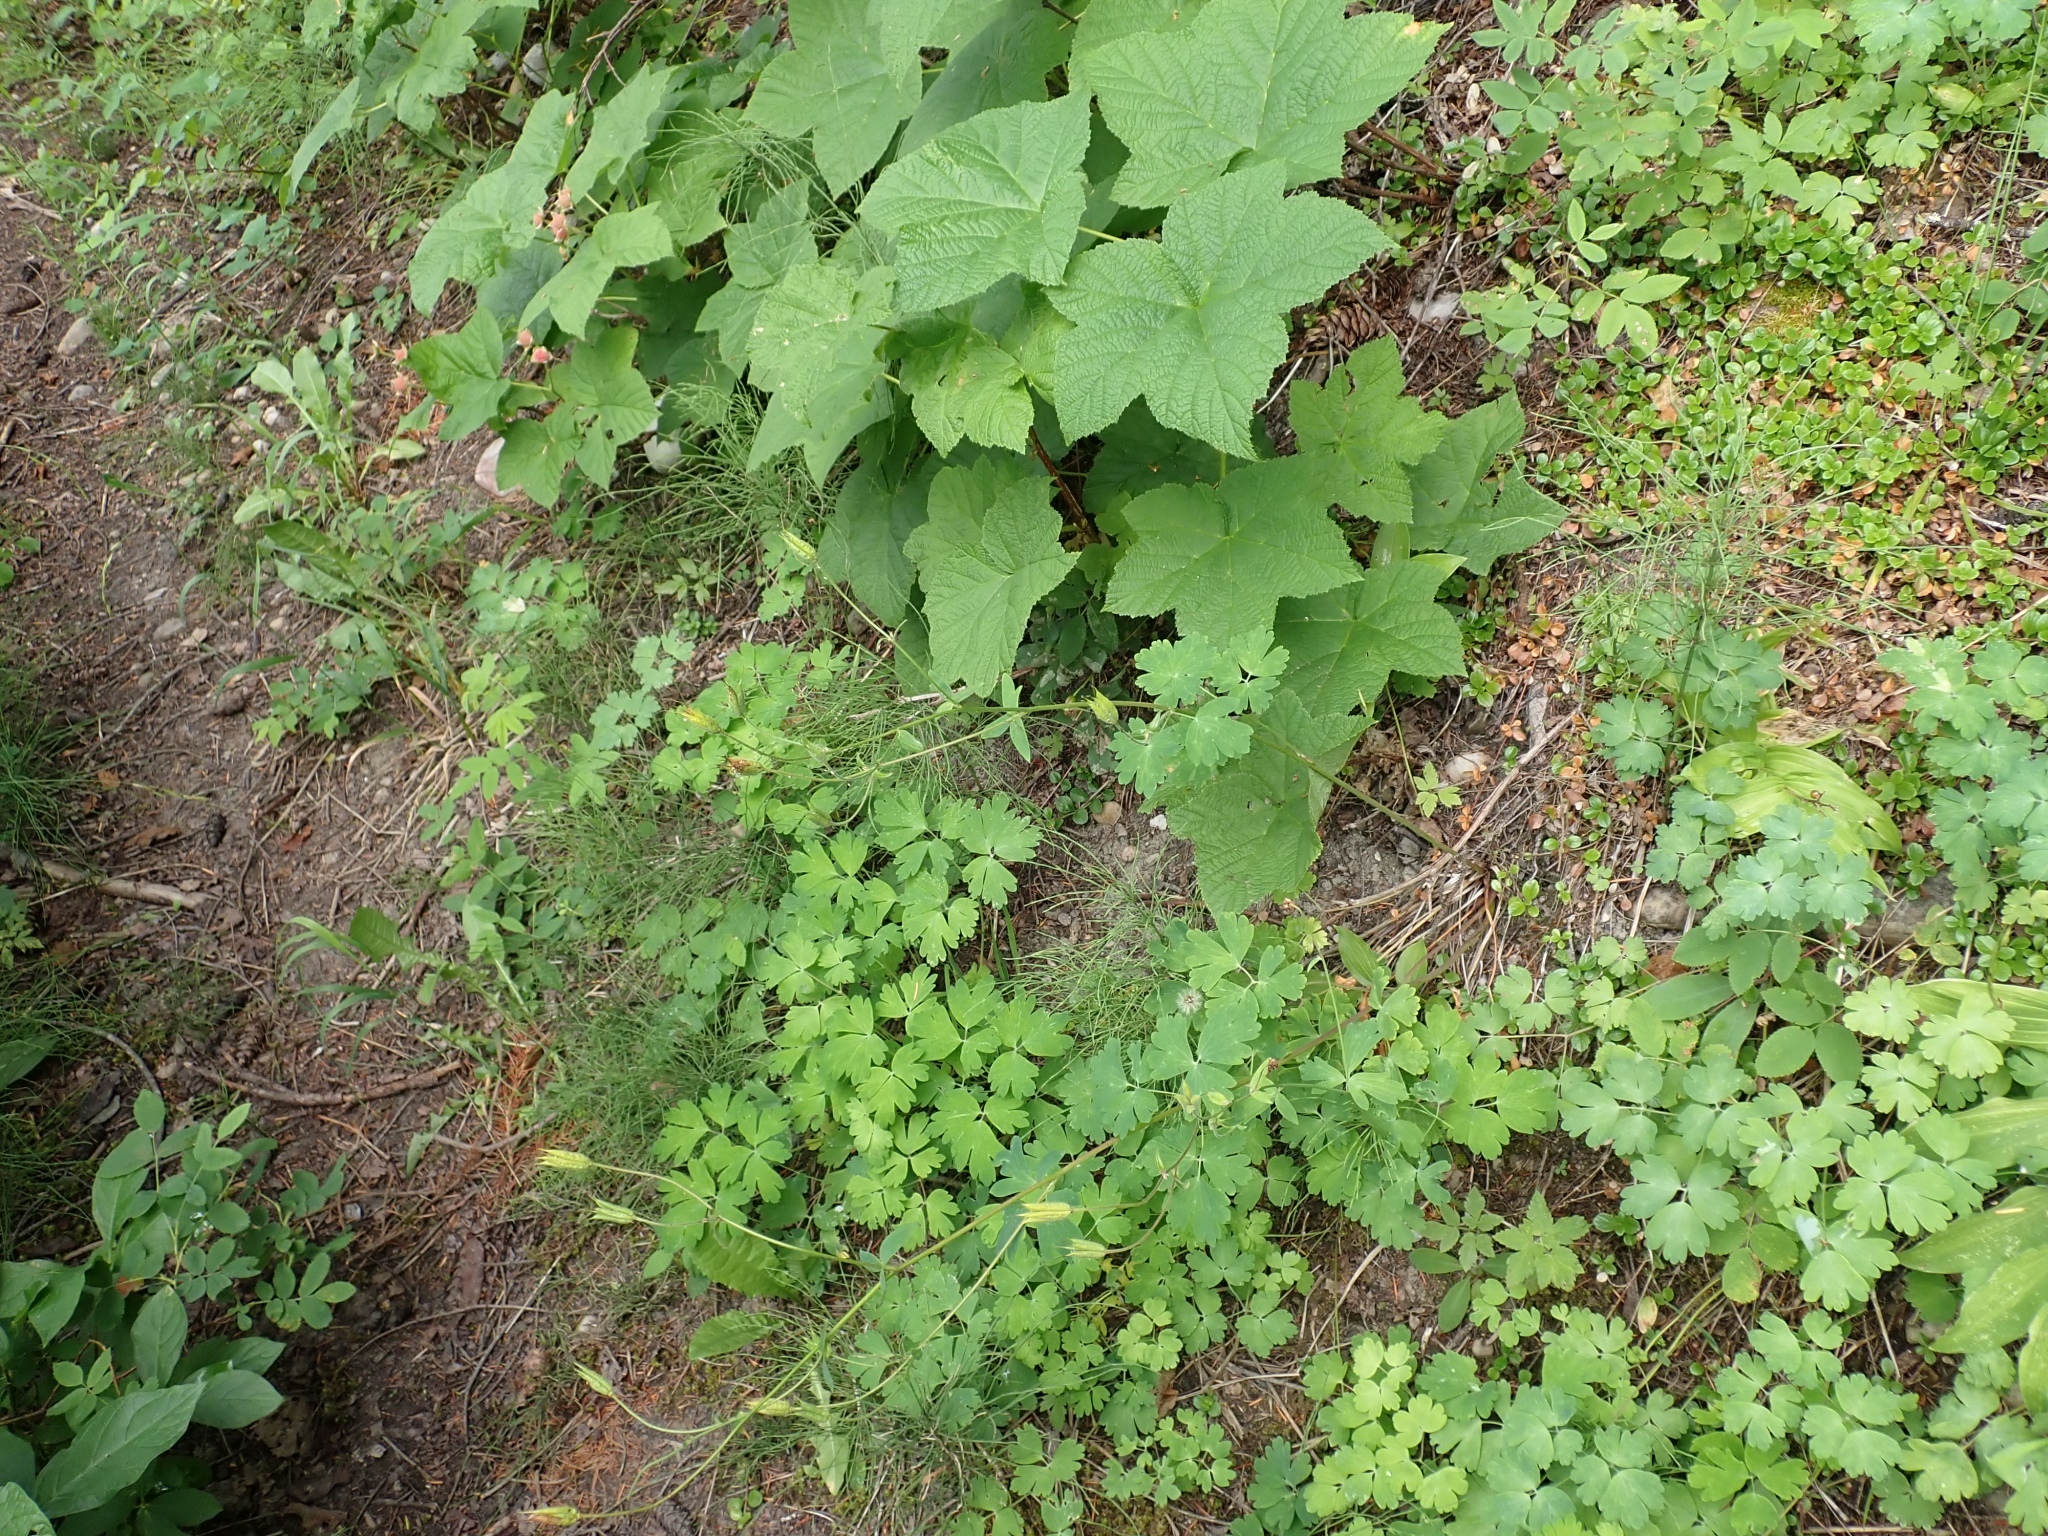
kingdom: Plantae
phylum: Tracheophyta
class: Magnoliopsida
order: Ranunculales
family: Ranunculaceae
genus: Aquilegia
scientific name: Aquilegia formosa
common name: Sitka columbine
